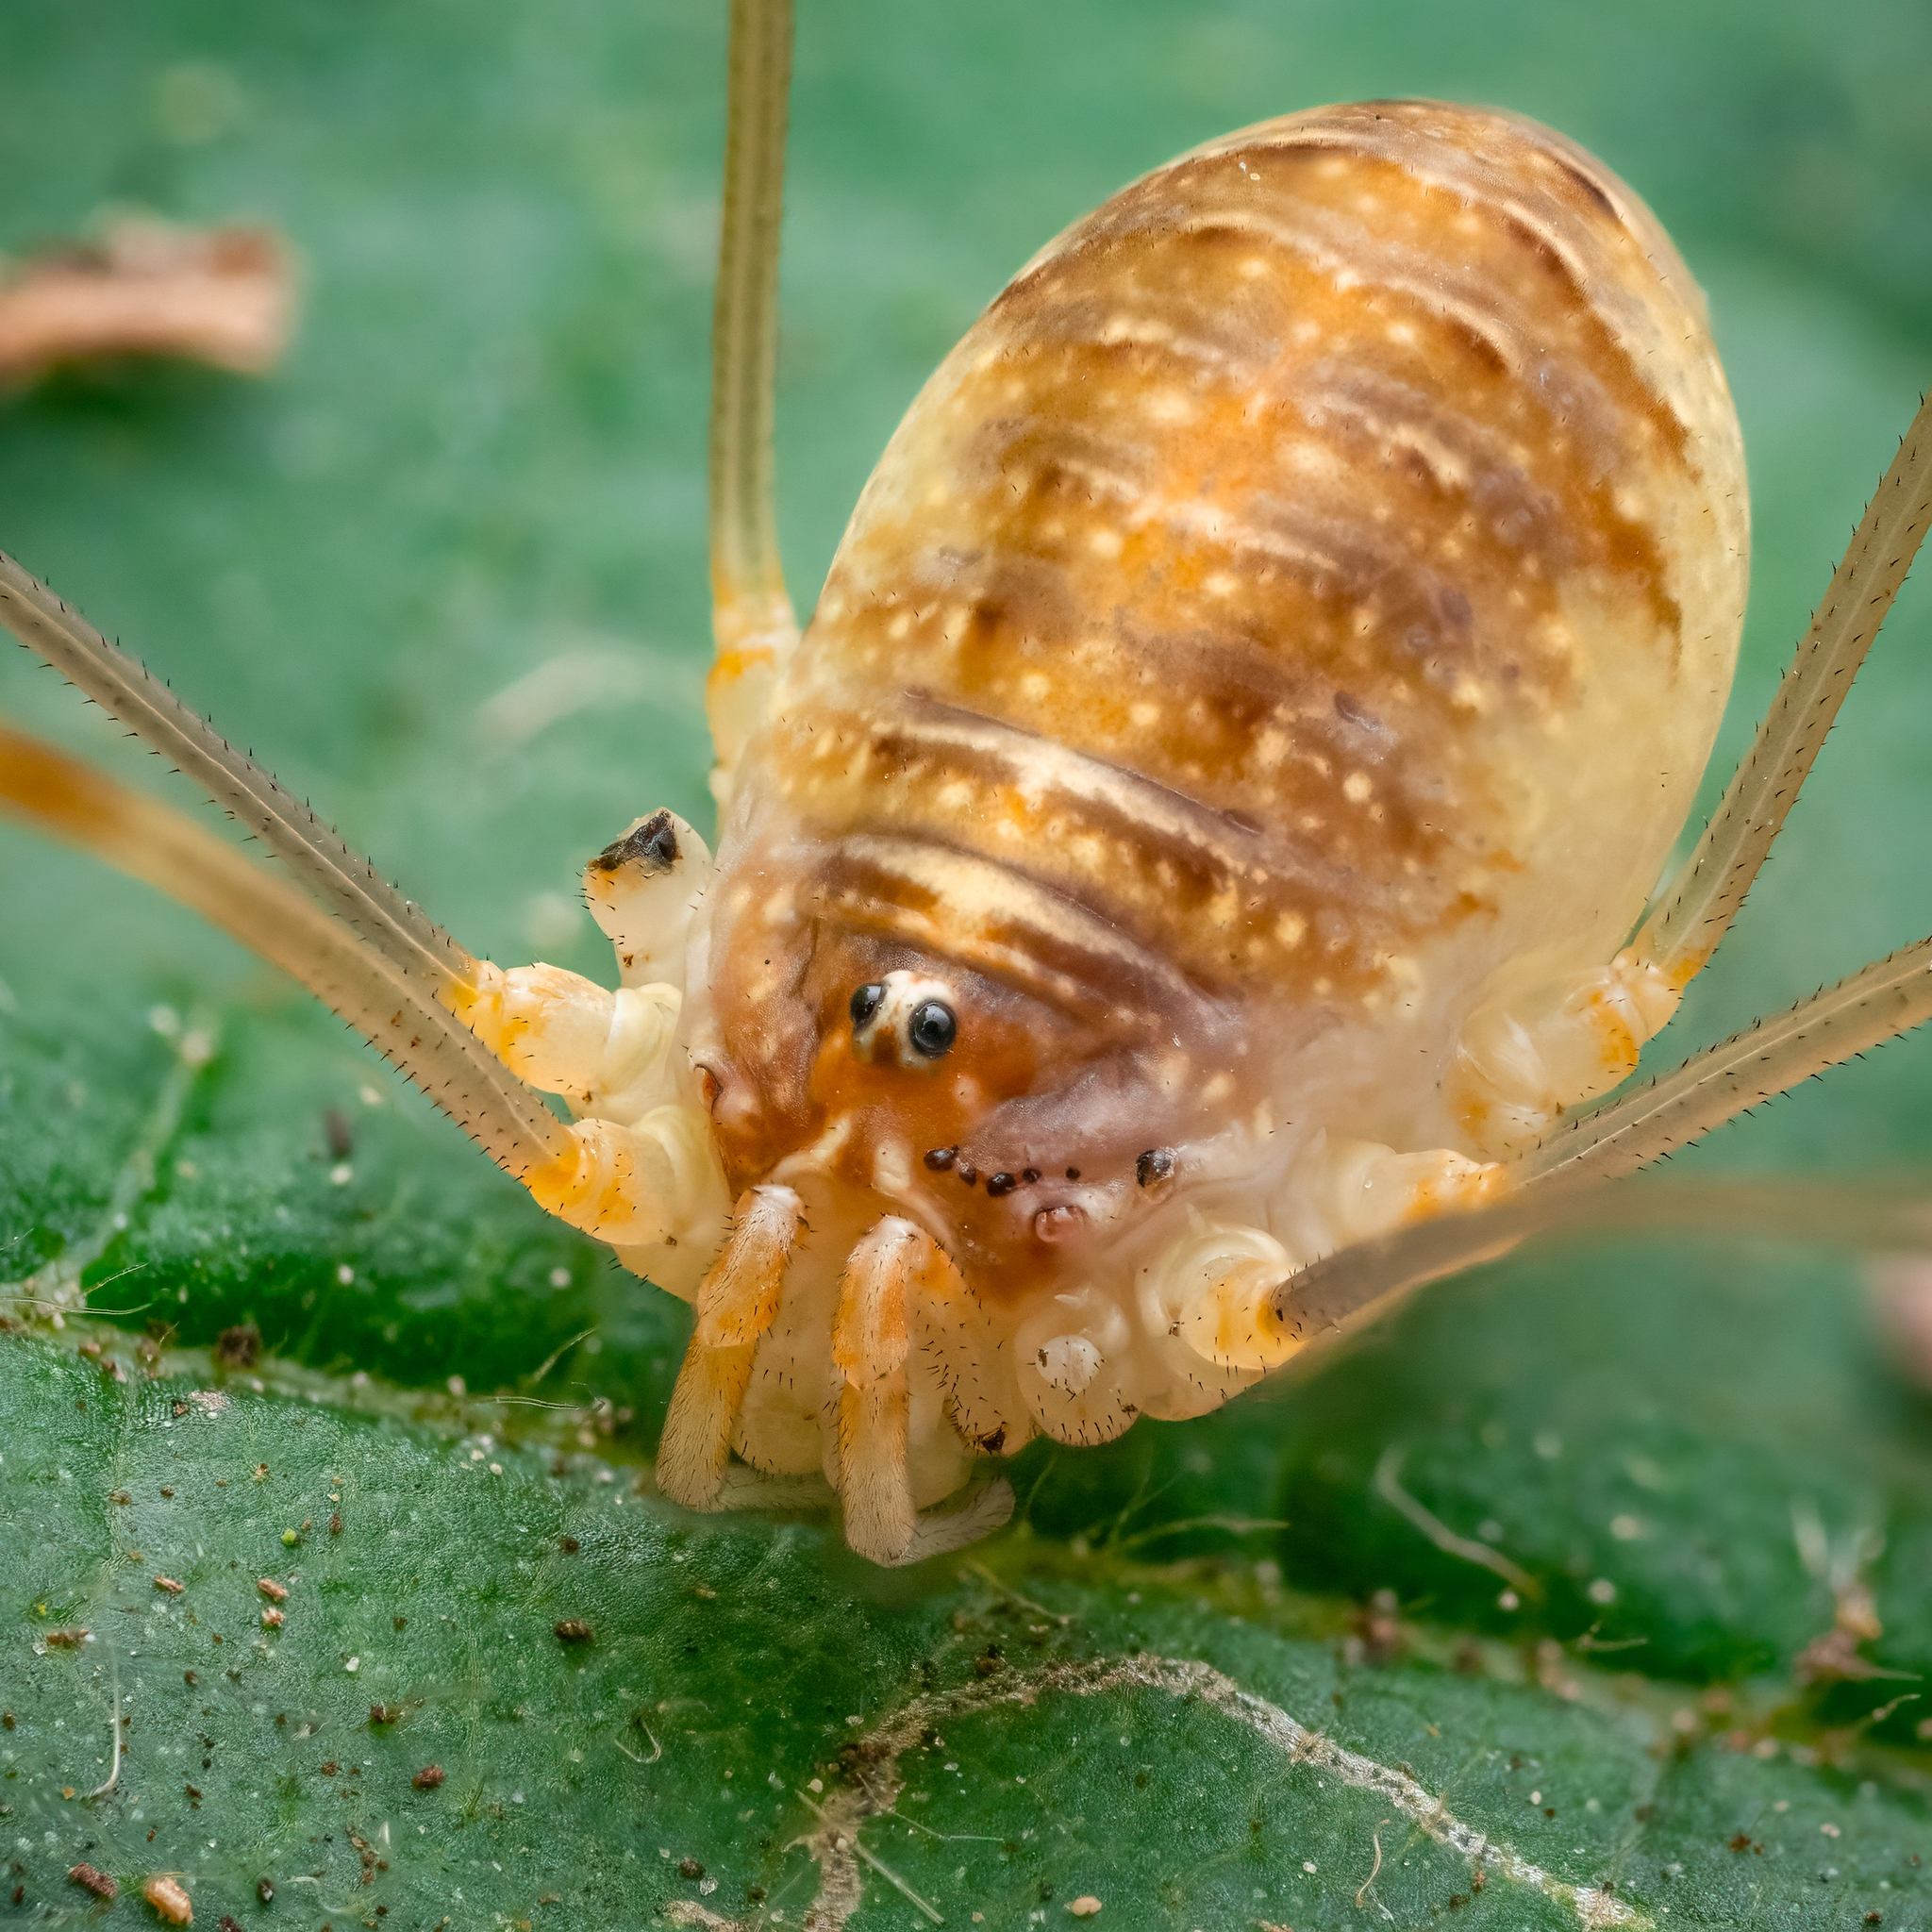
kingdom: Animalia
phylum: Arthropoda
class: Arachnida
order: Opiliones
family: Phalangiidae
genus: Opilio
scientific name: Opilio canestrinii
